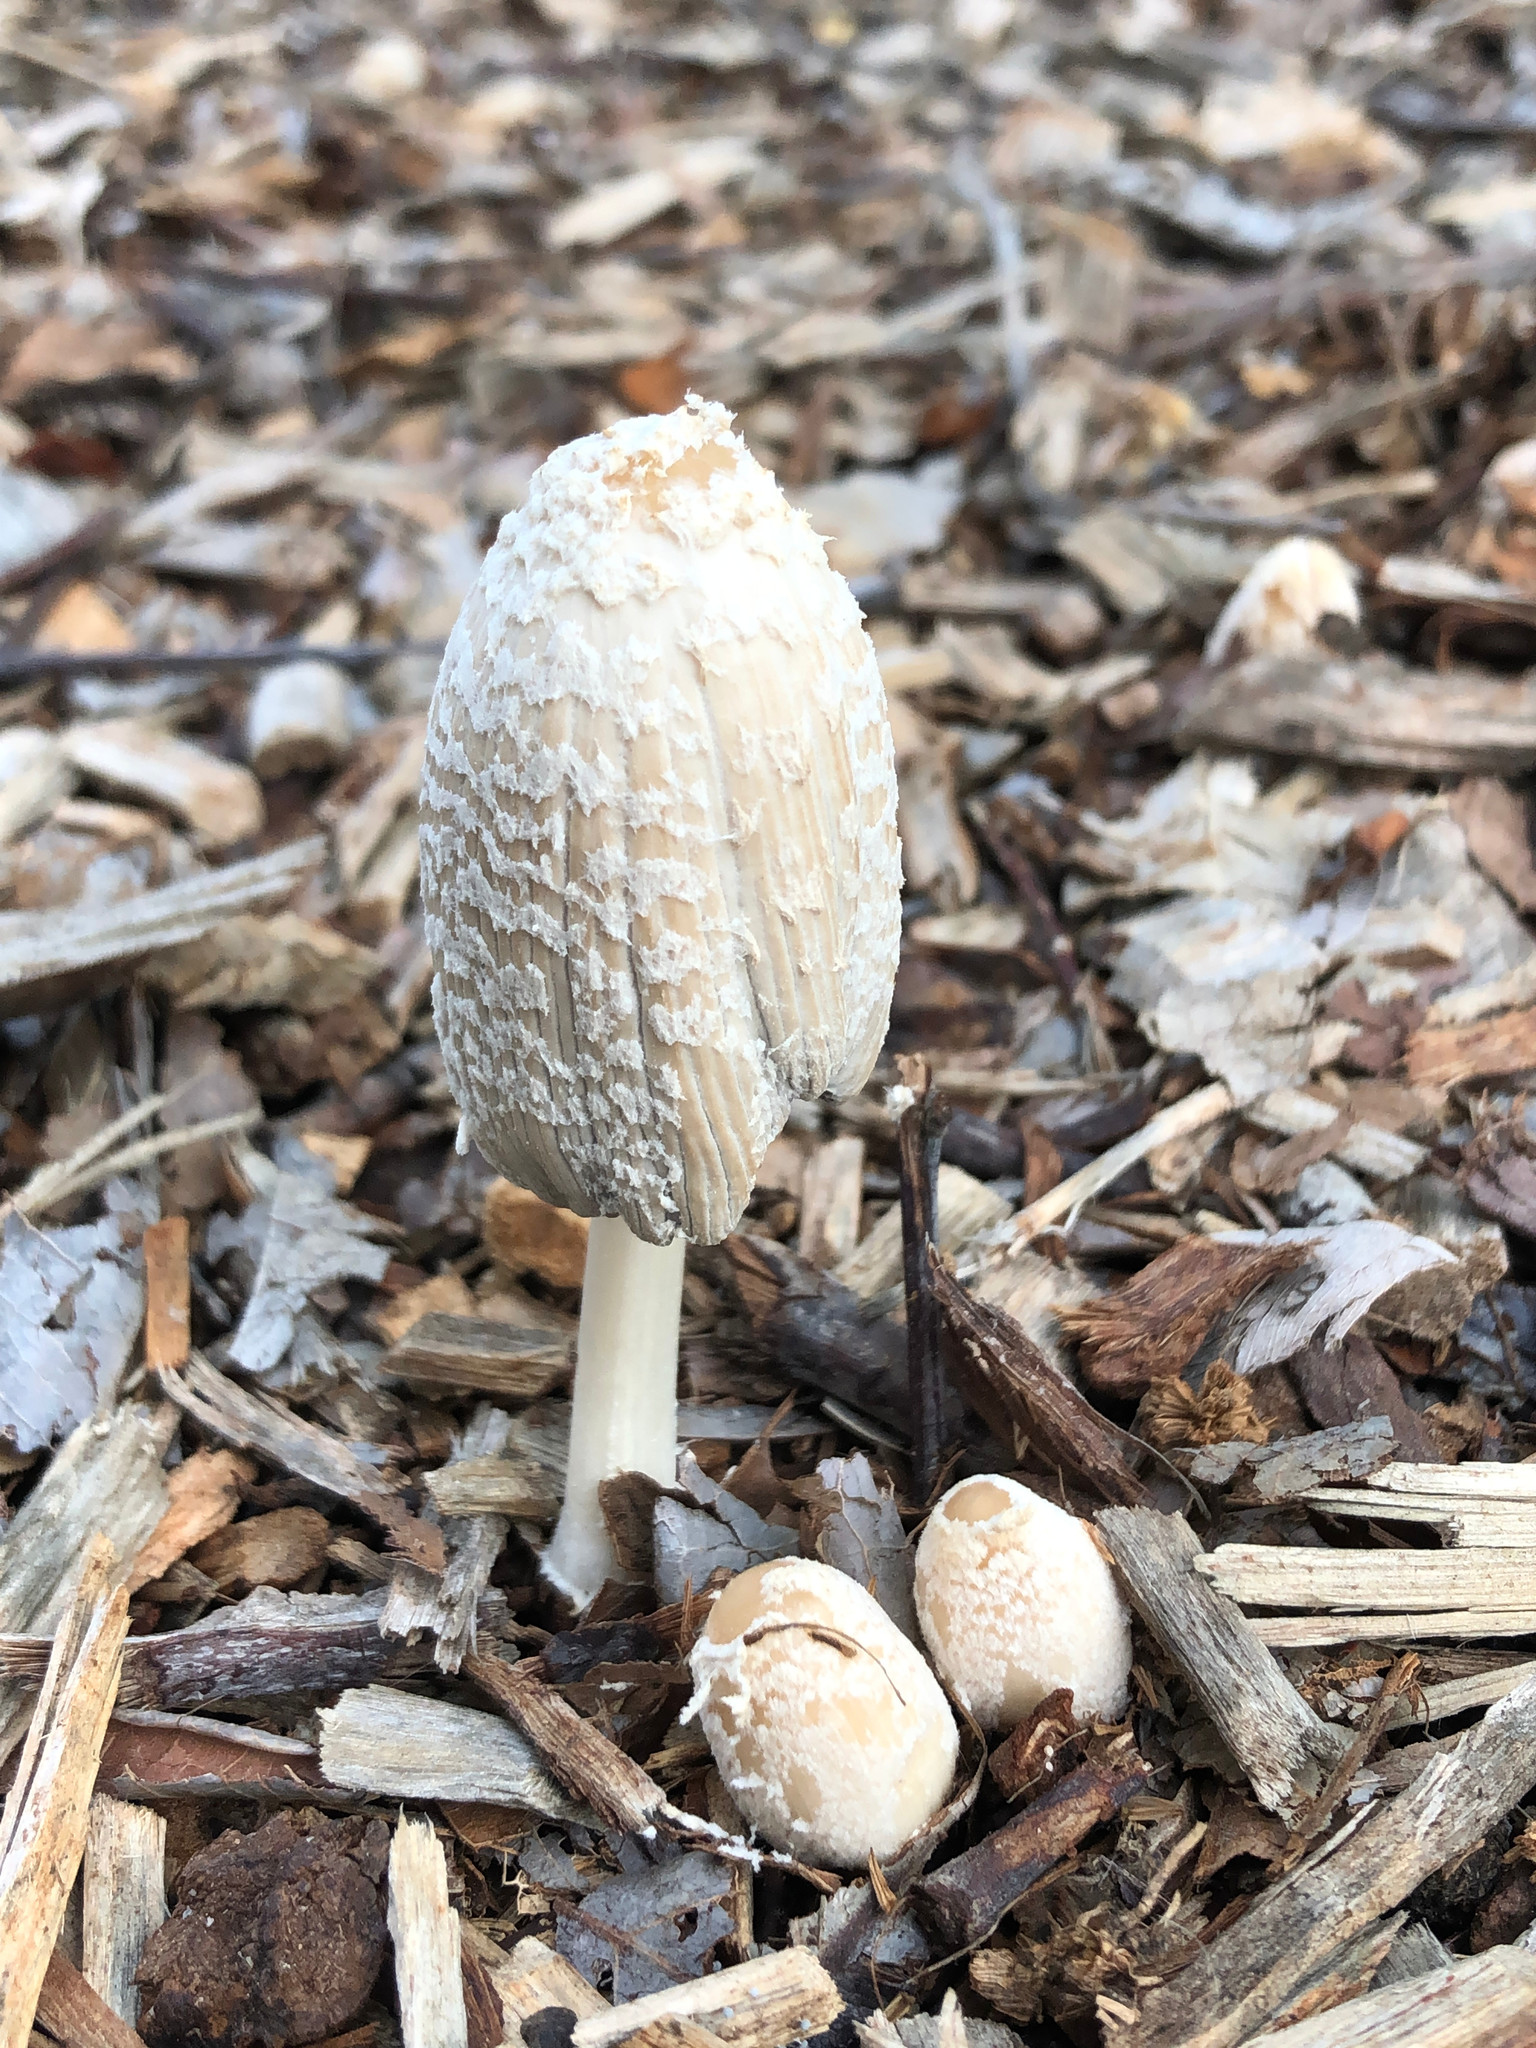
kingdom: Fungi
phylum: Basidiomycota
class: Agaricomycetes
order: Agaricales
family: Psathyrellaceae
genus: Coprinellus
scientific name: Coprinellus flocculosus
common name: Flocculose inkcap
